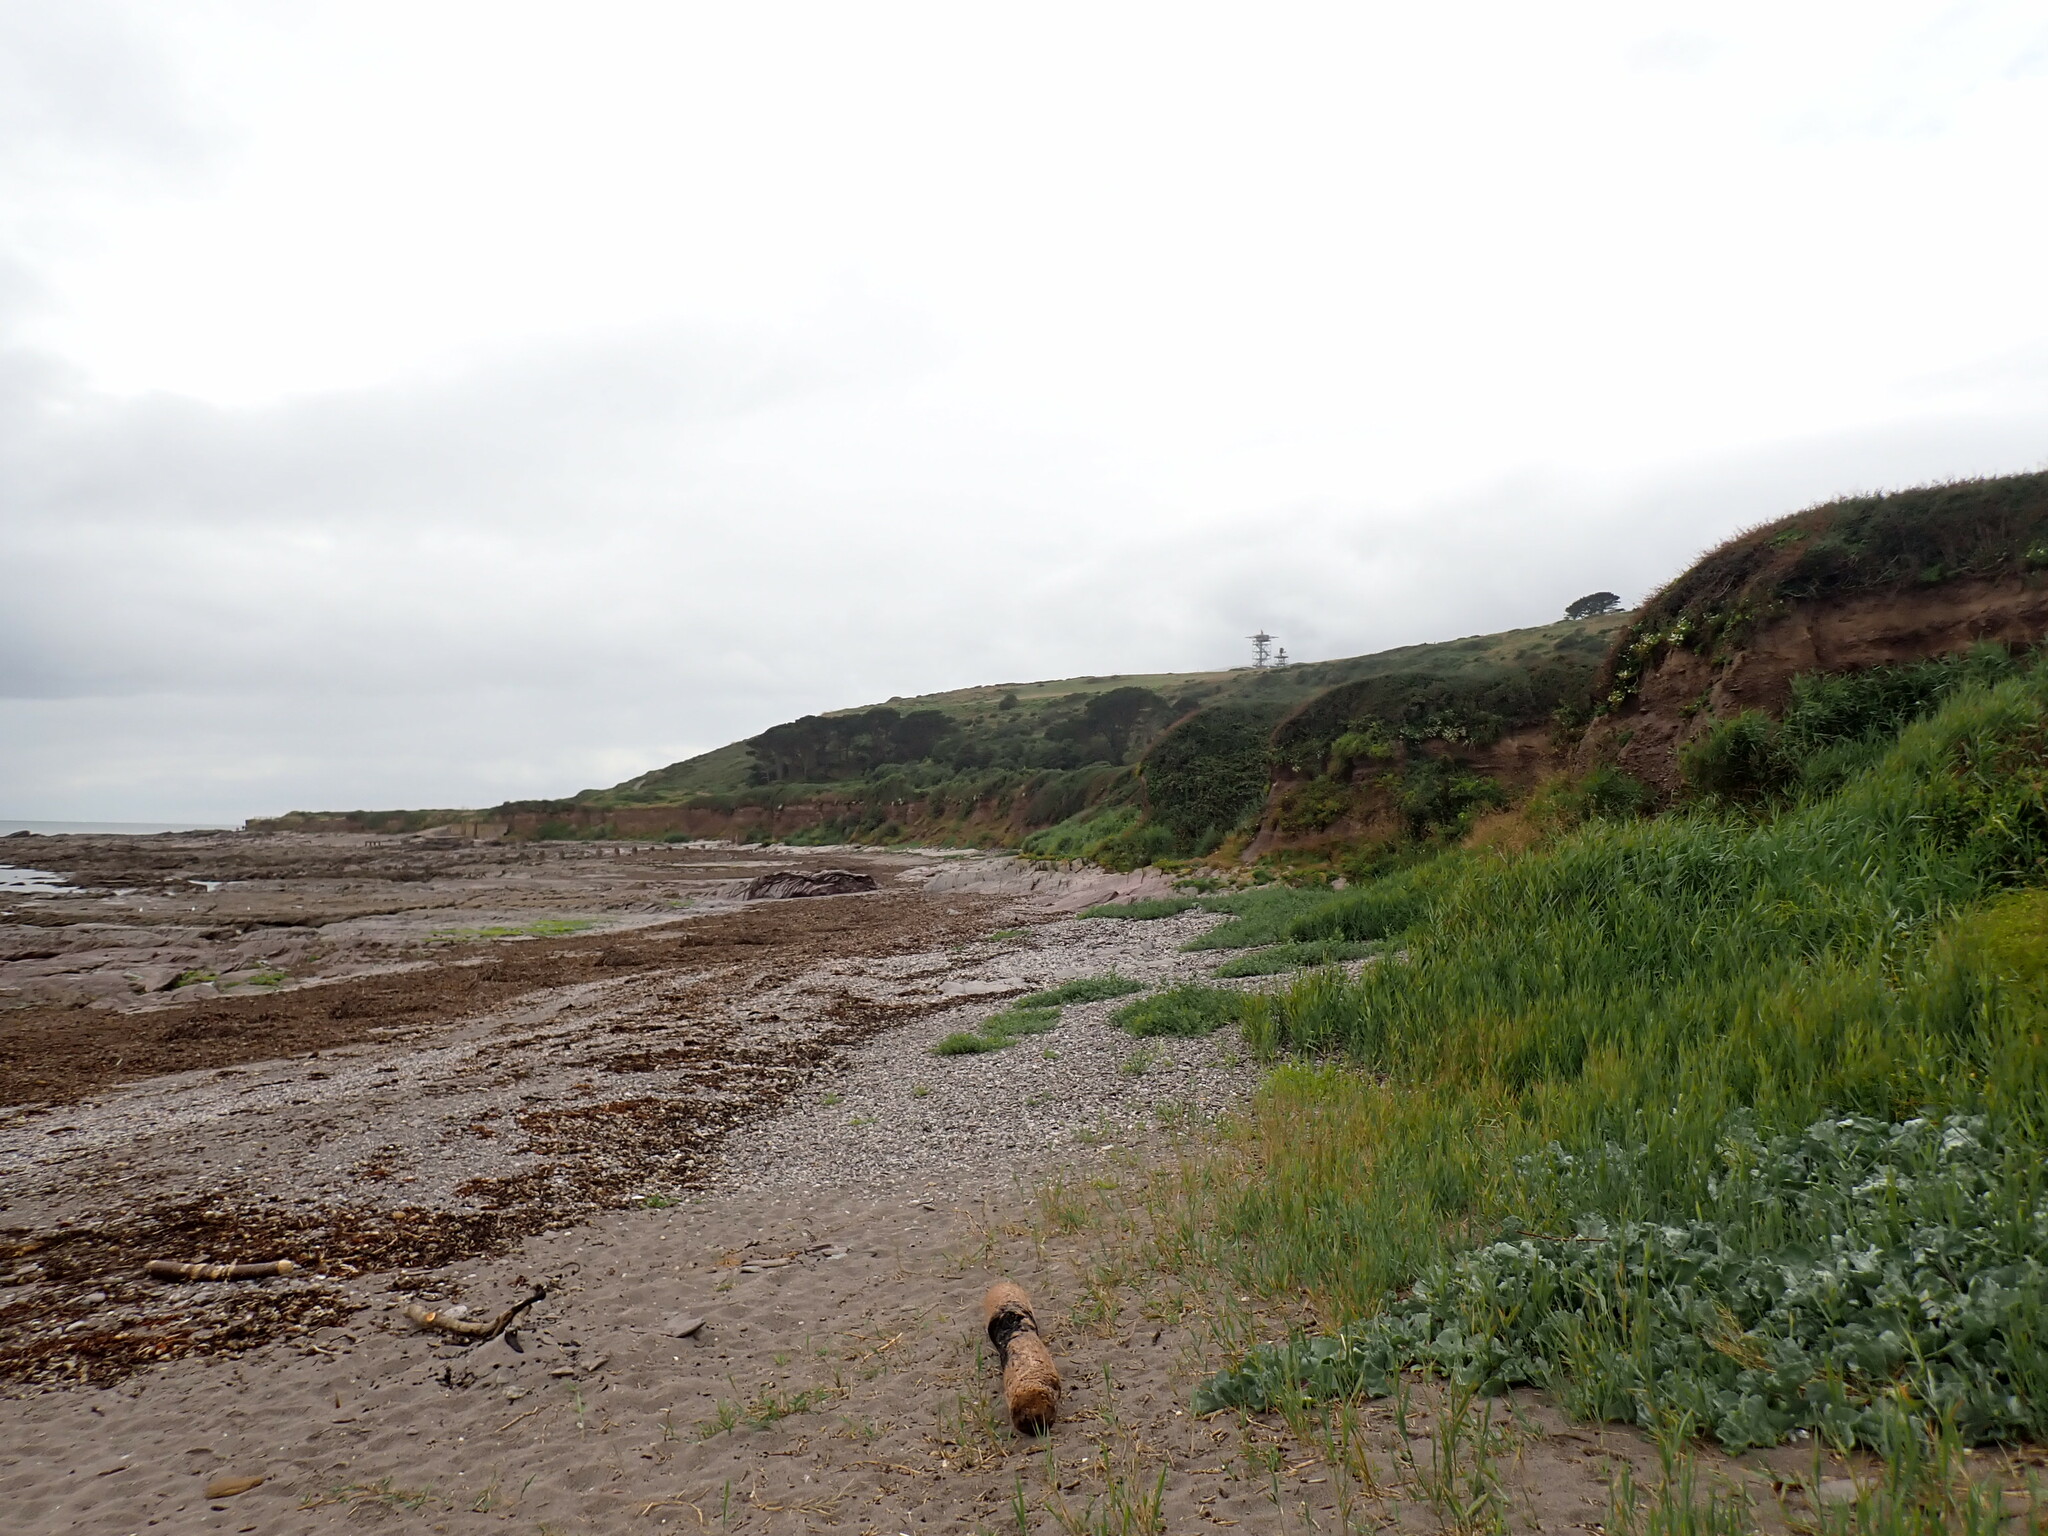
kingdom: Plantae
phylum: Tracheophyta
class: Magnoliopsida
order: Brassicales
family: Brassicaceae
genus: Crambe
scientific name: Crambe maritima
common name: Sea-kale
